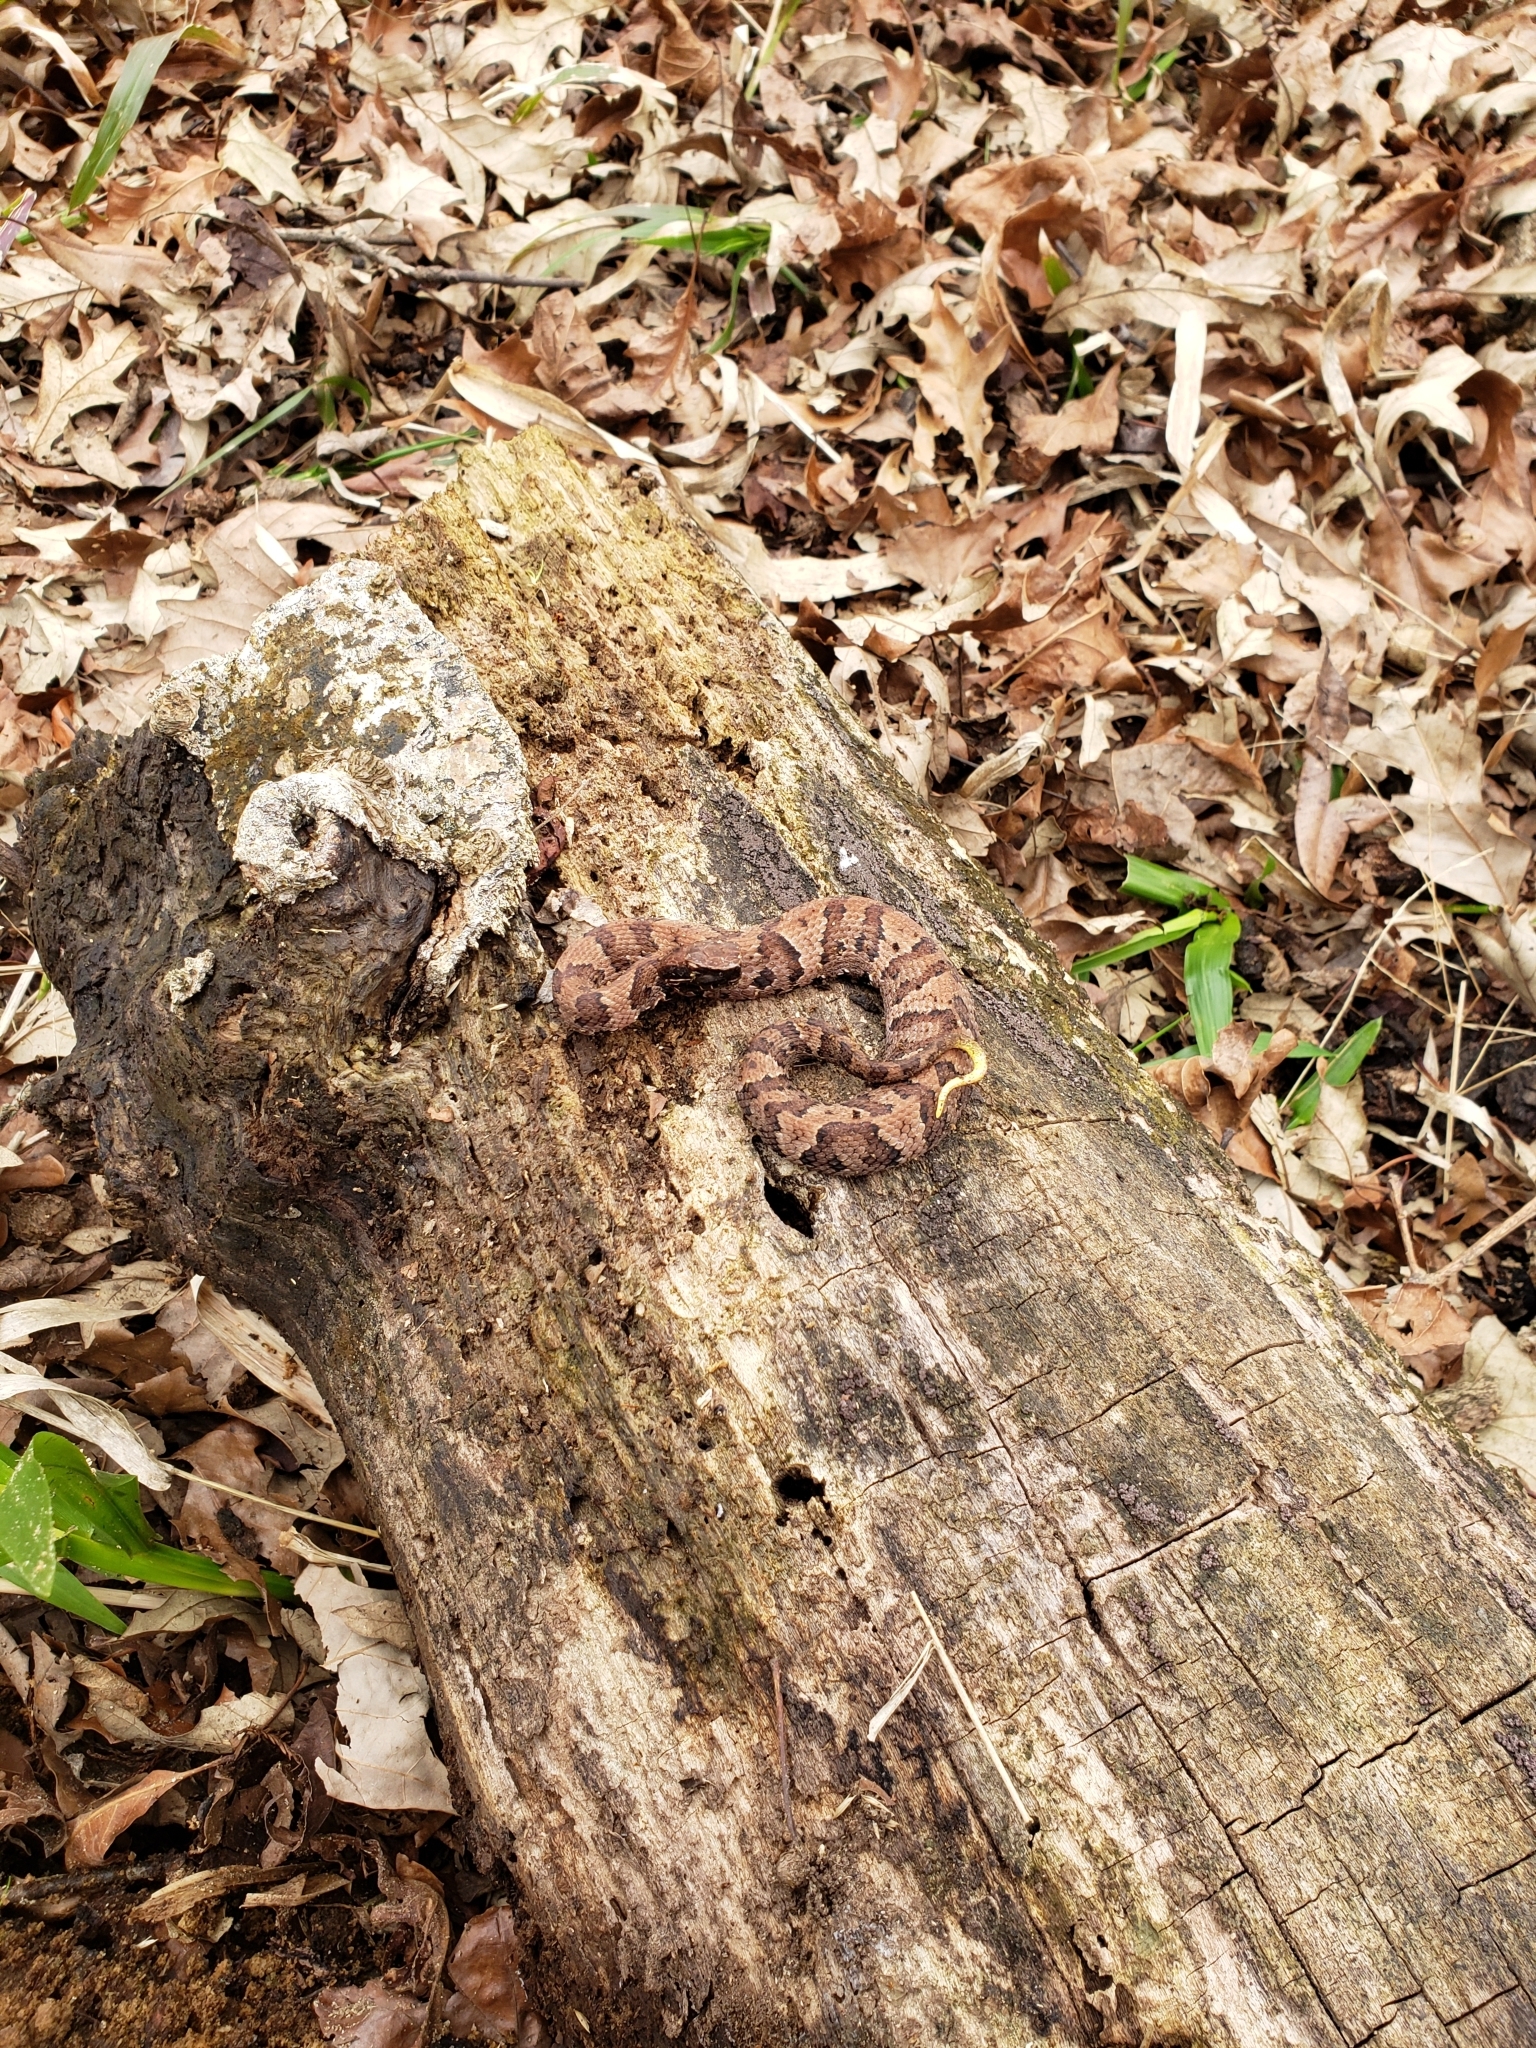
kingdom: Animalia
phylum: Chordata
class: Squamata
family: Viperidae
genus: Agkistrodon
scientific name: Agkistrodon piscivorus
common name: Cottonmouth
